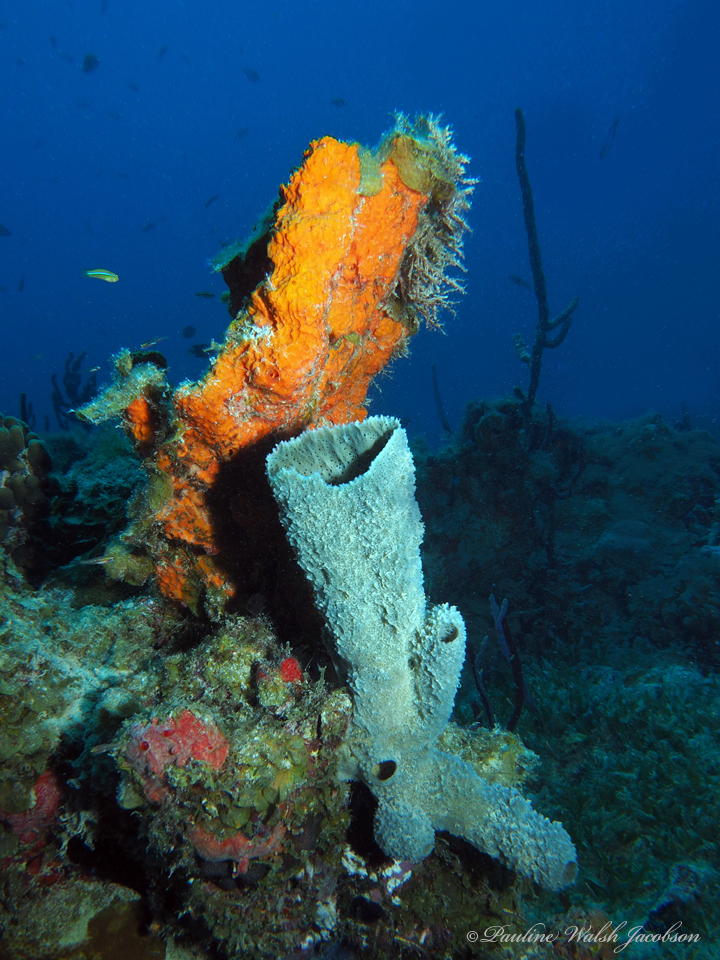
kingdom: Animalia
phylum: Porifera
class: Demospongiae
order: Haplosclerida
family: Callyspongiidae
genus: Callyspongia
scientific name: Callyspongia aculeata
